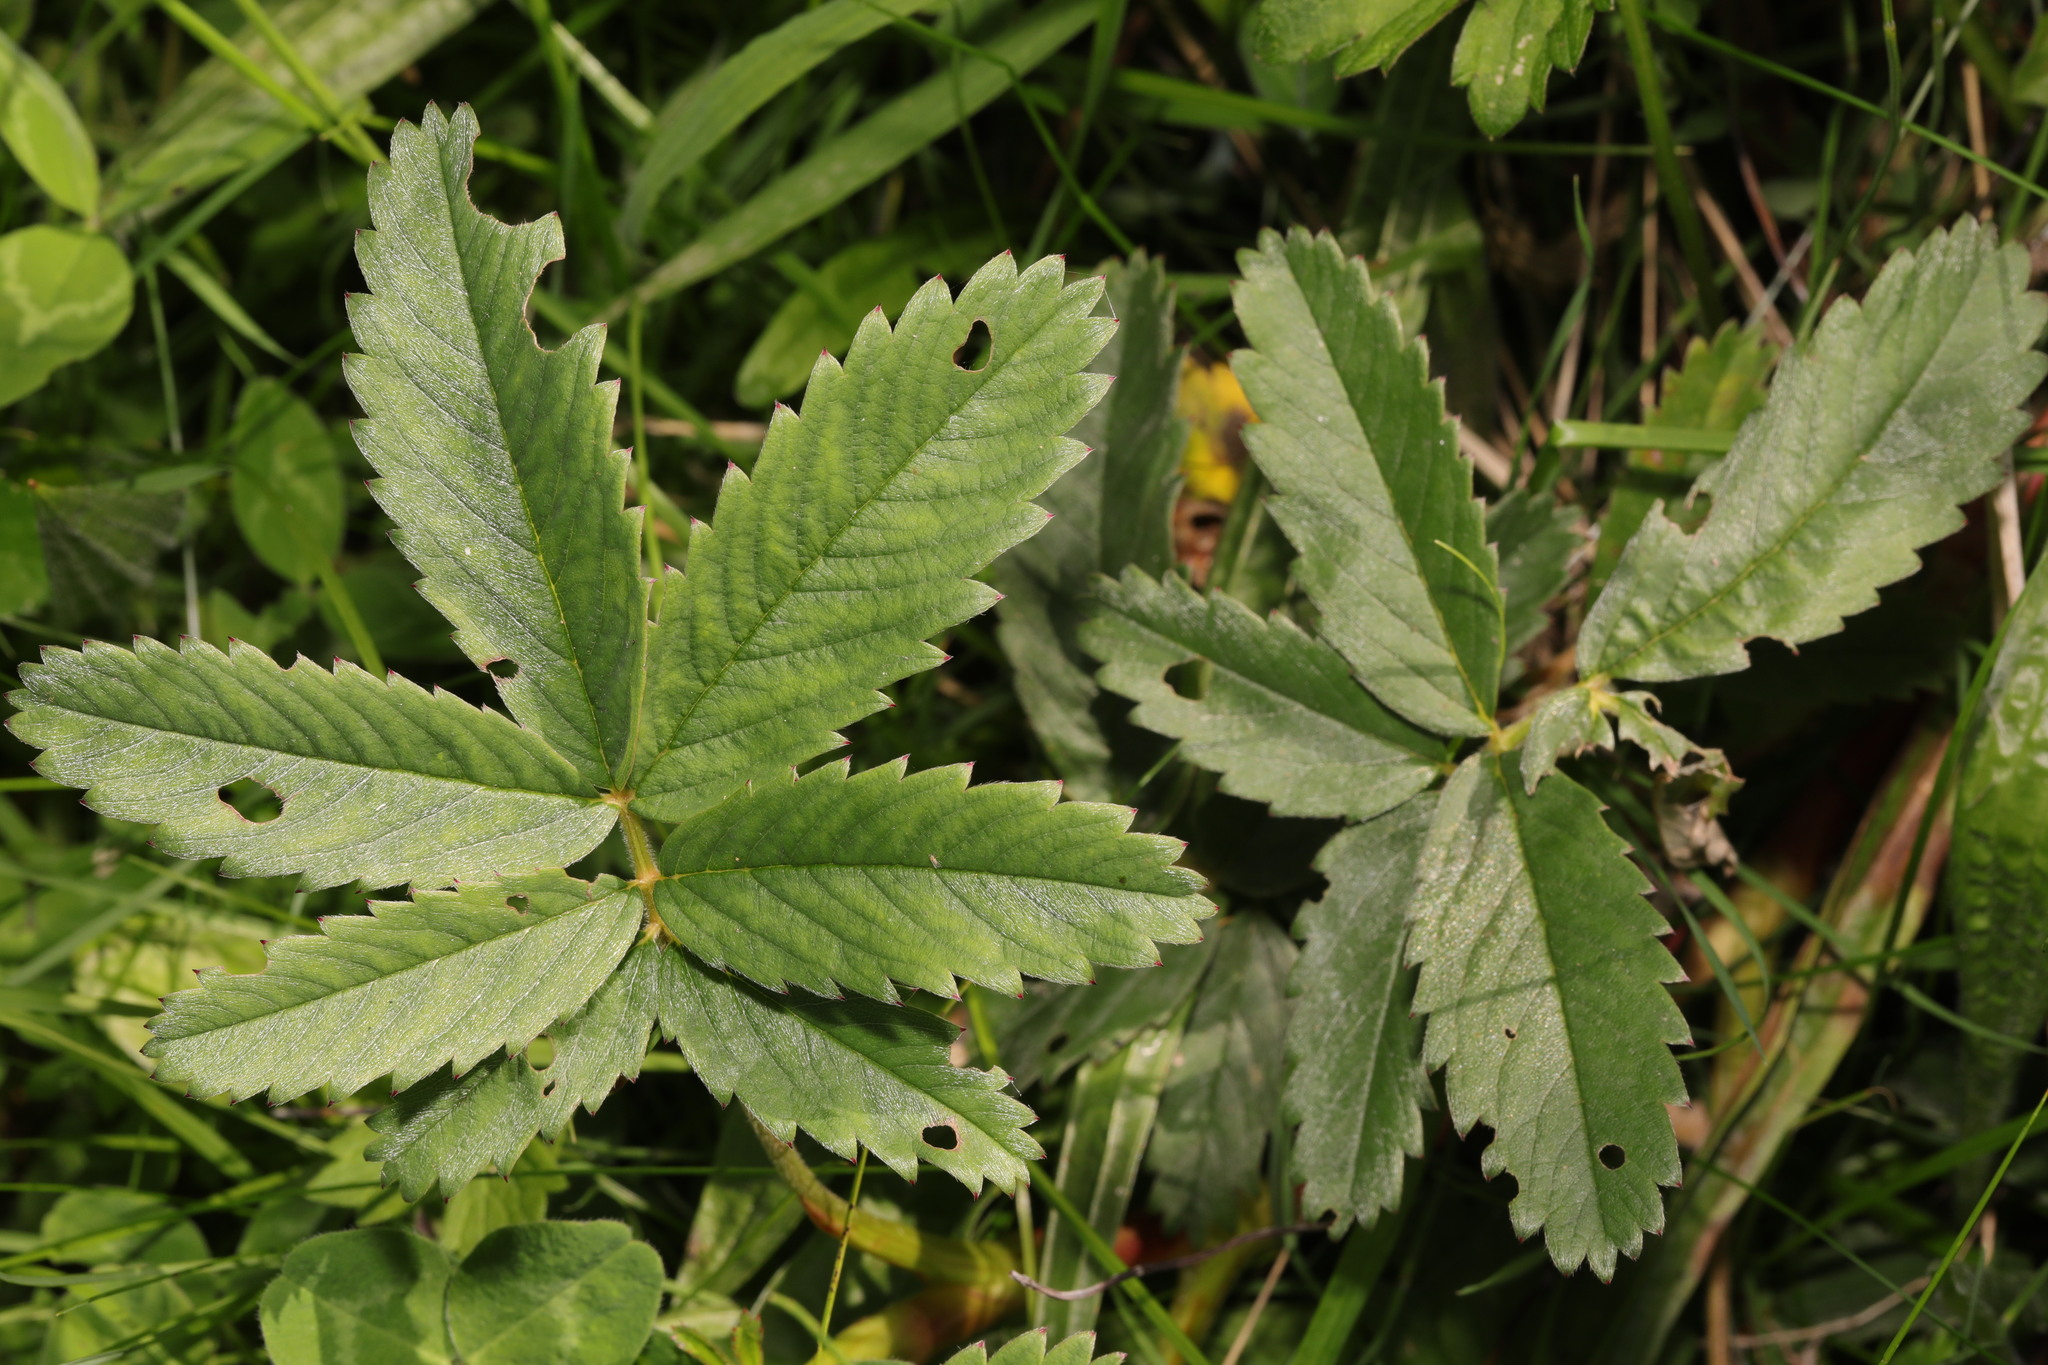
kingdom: Plantae
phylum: Tracheophyta
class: Magnoliopsida
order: Rosales
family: Rosaceae
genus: Comarum
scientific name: Comarum palustre
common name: Marsh cinquefoil
